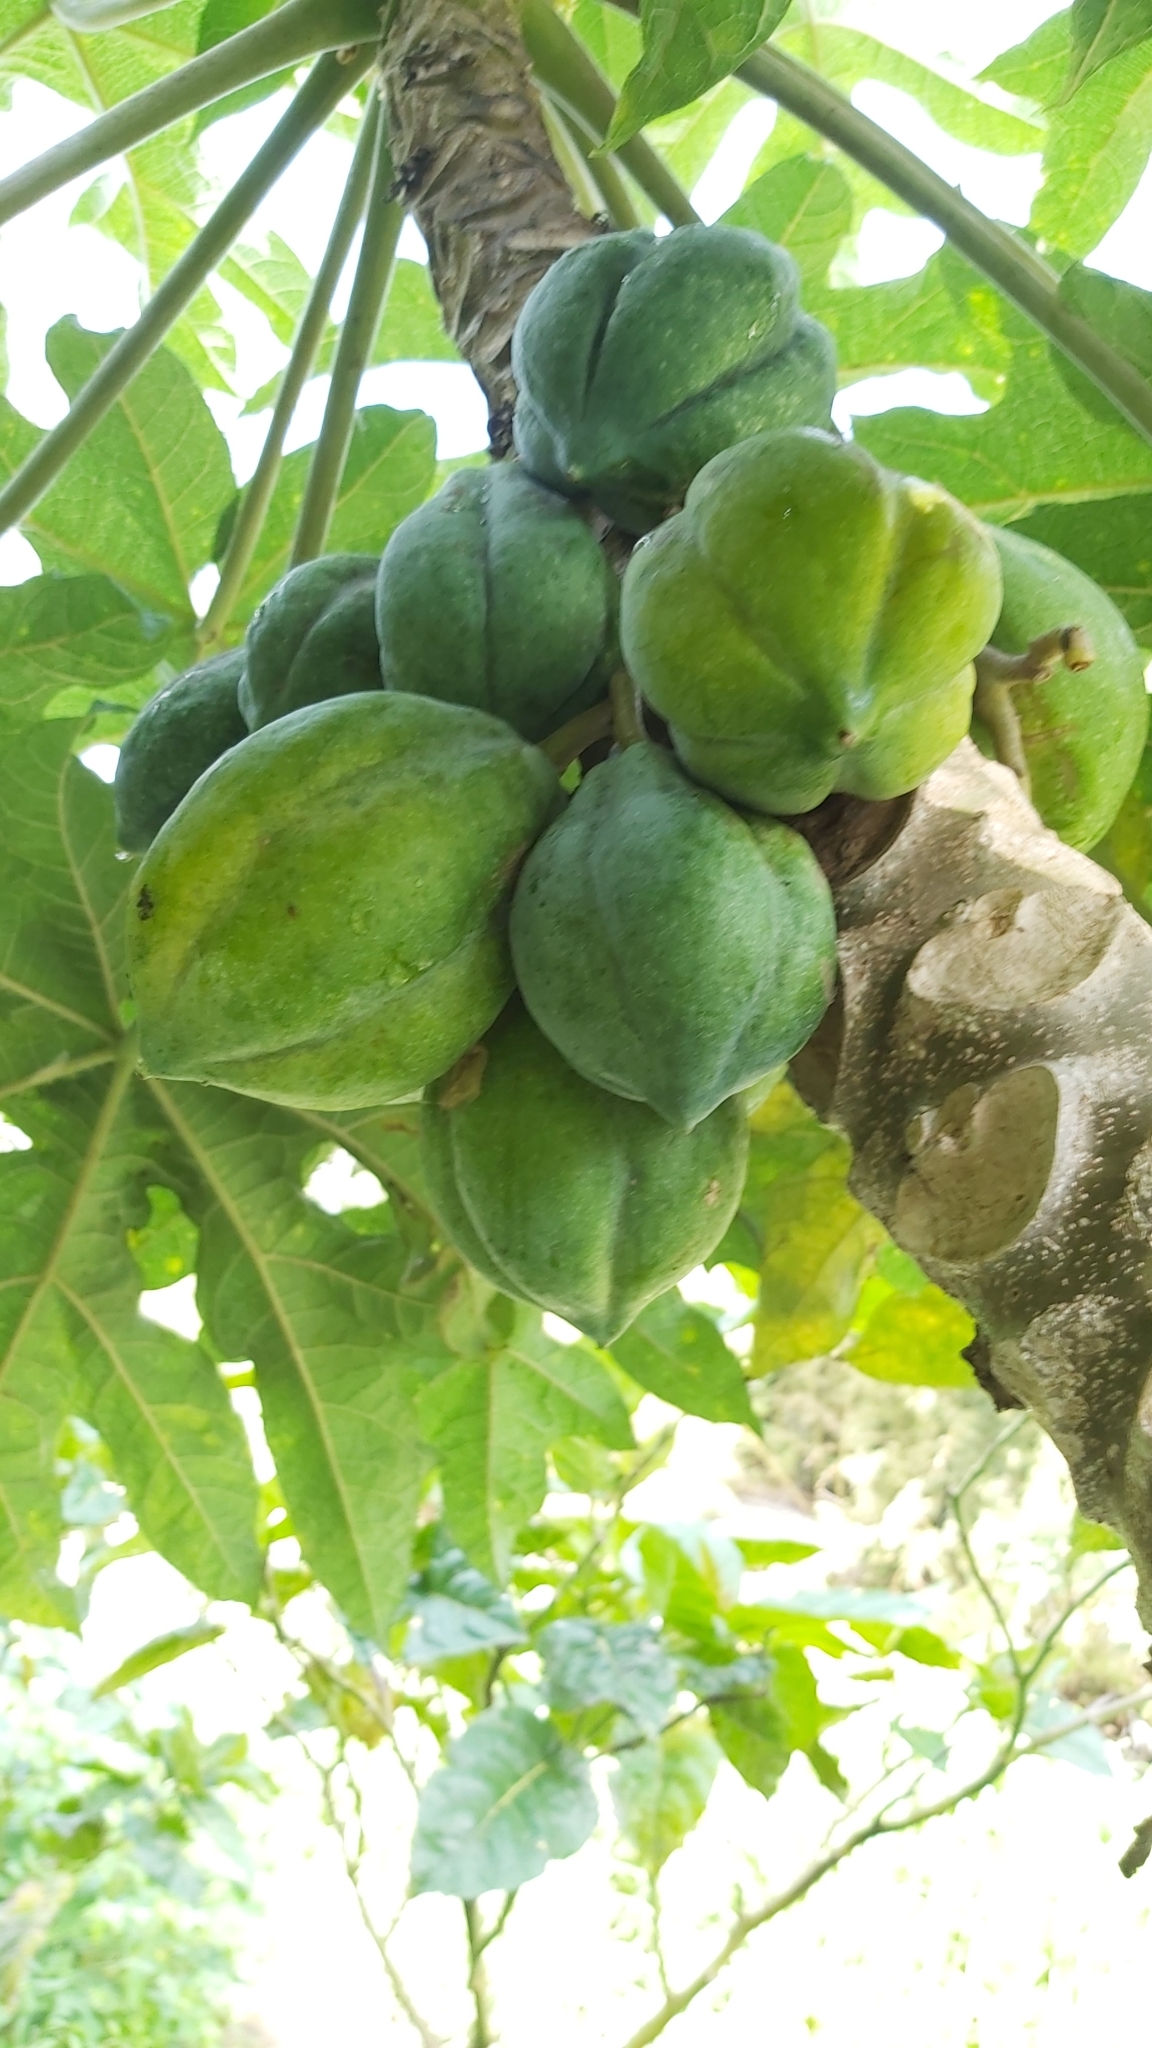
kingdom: Plantae
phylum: Tracheophyta
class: Magnoliopsida
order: Brassicales
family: Caricaceae
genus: Carica
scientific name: Carica papaya
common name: Papaya
